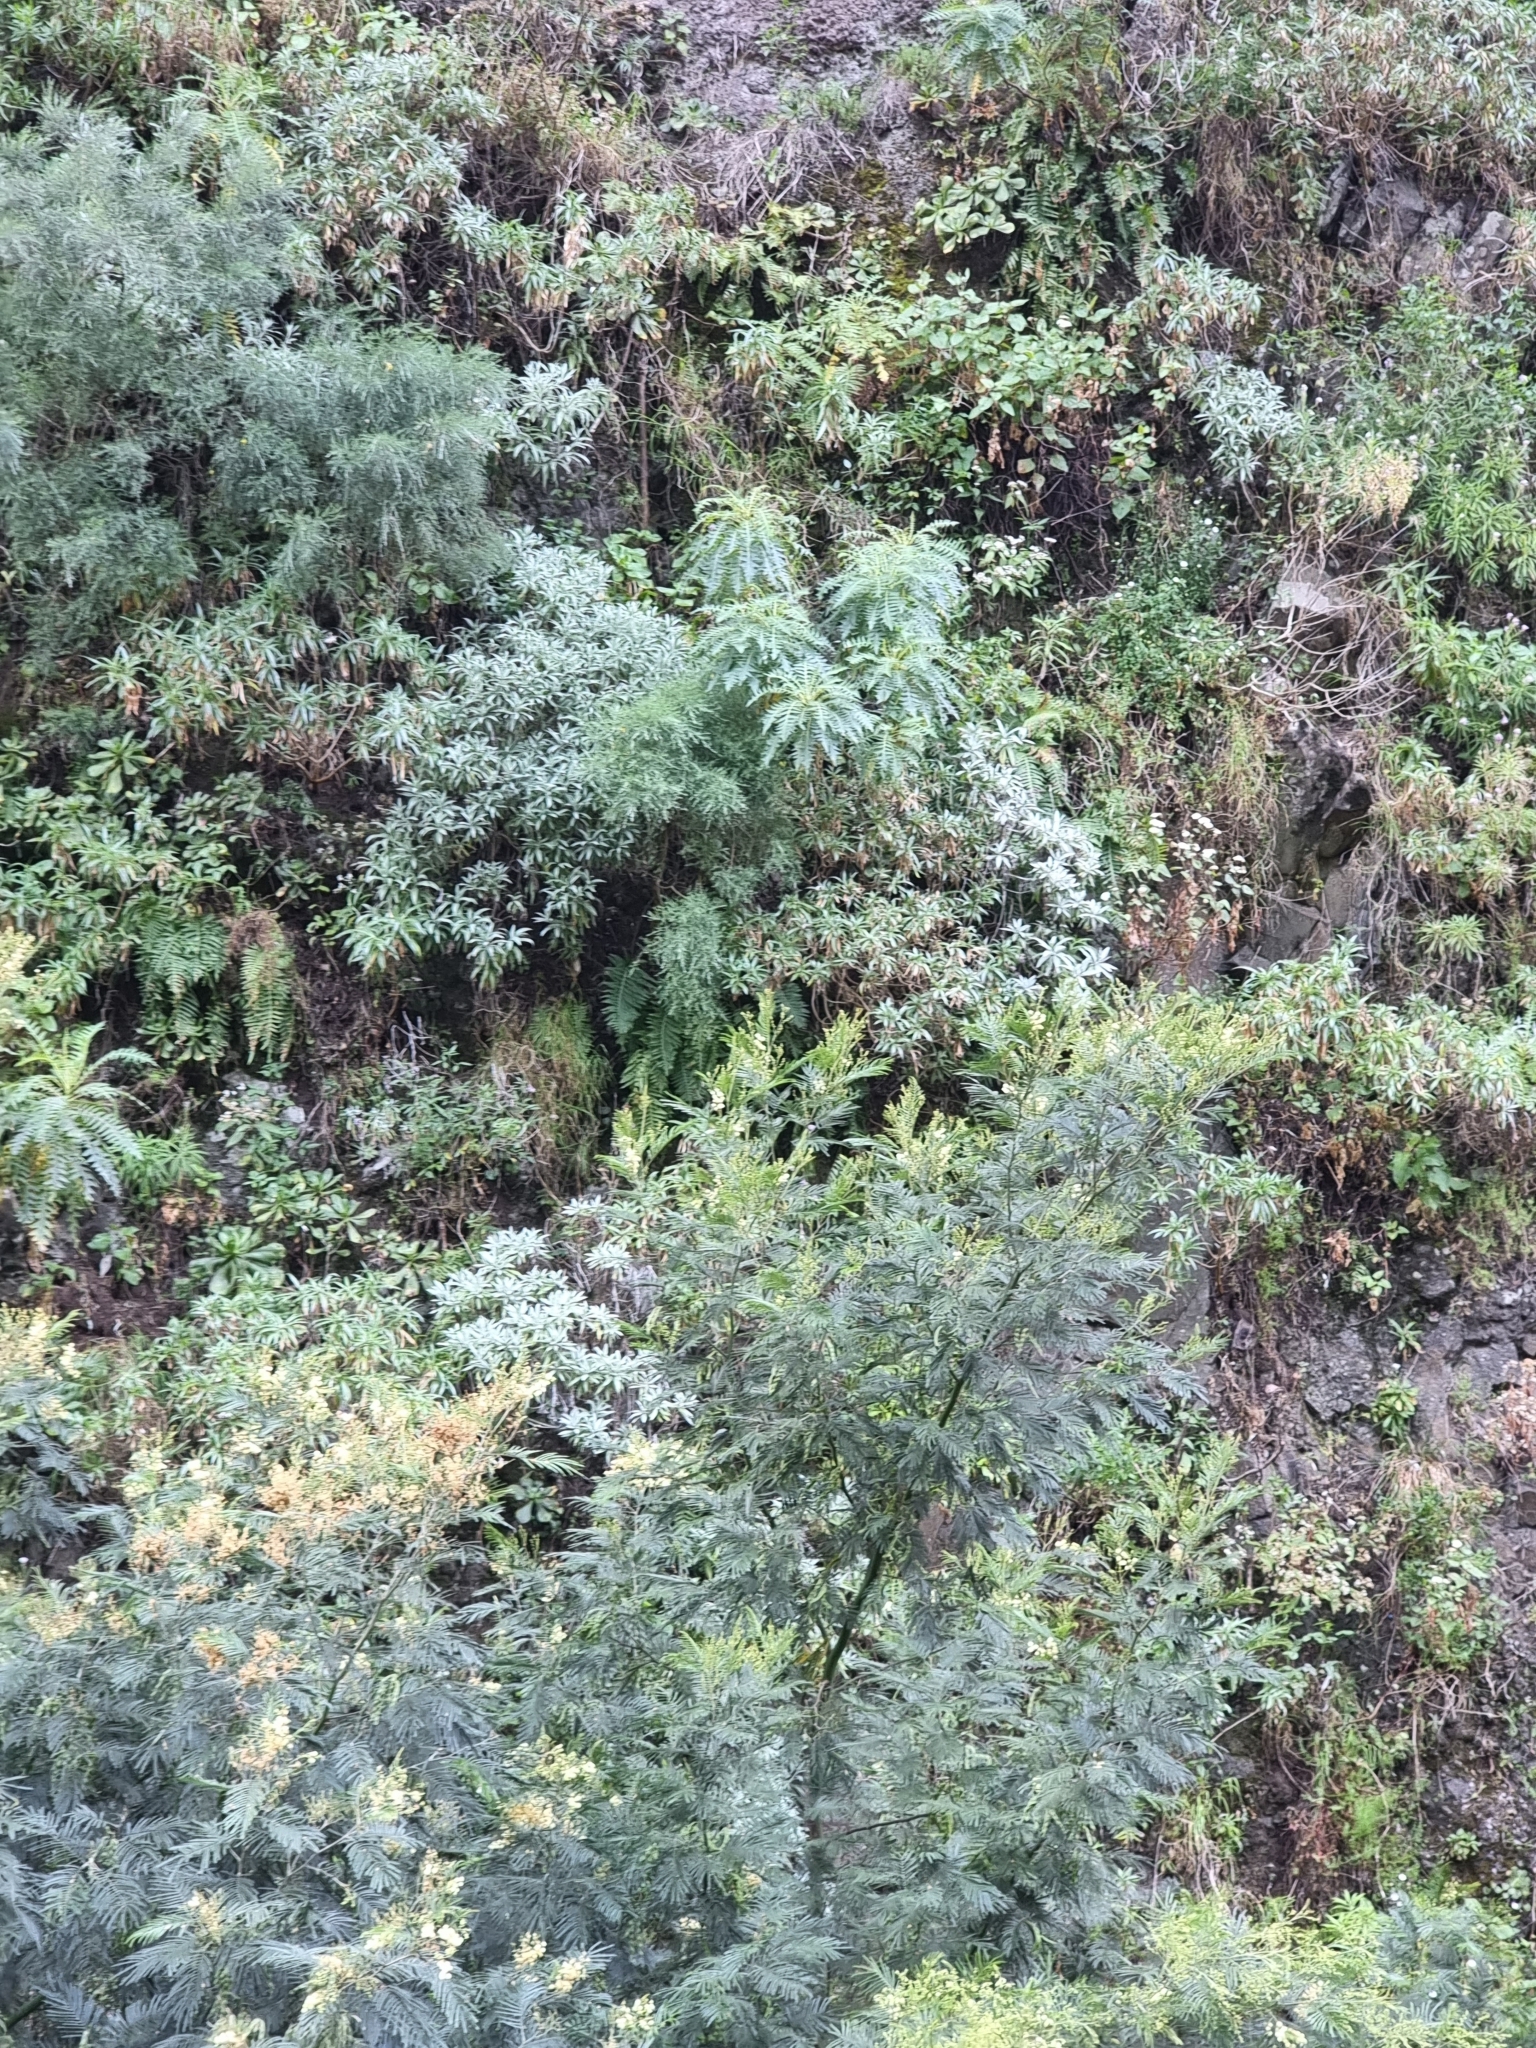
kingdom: Plantae
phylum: Tracheophyta
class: Magnoliopsida
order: Asterales
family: Asteraceae
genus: Sonchus
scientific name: Sonchus pinnatus
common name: Wing-leaved sow-thistle
